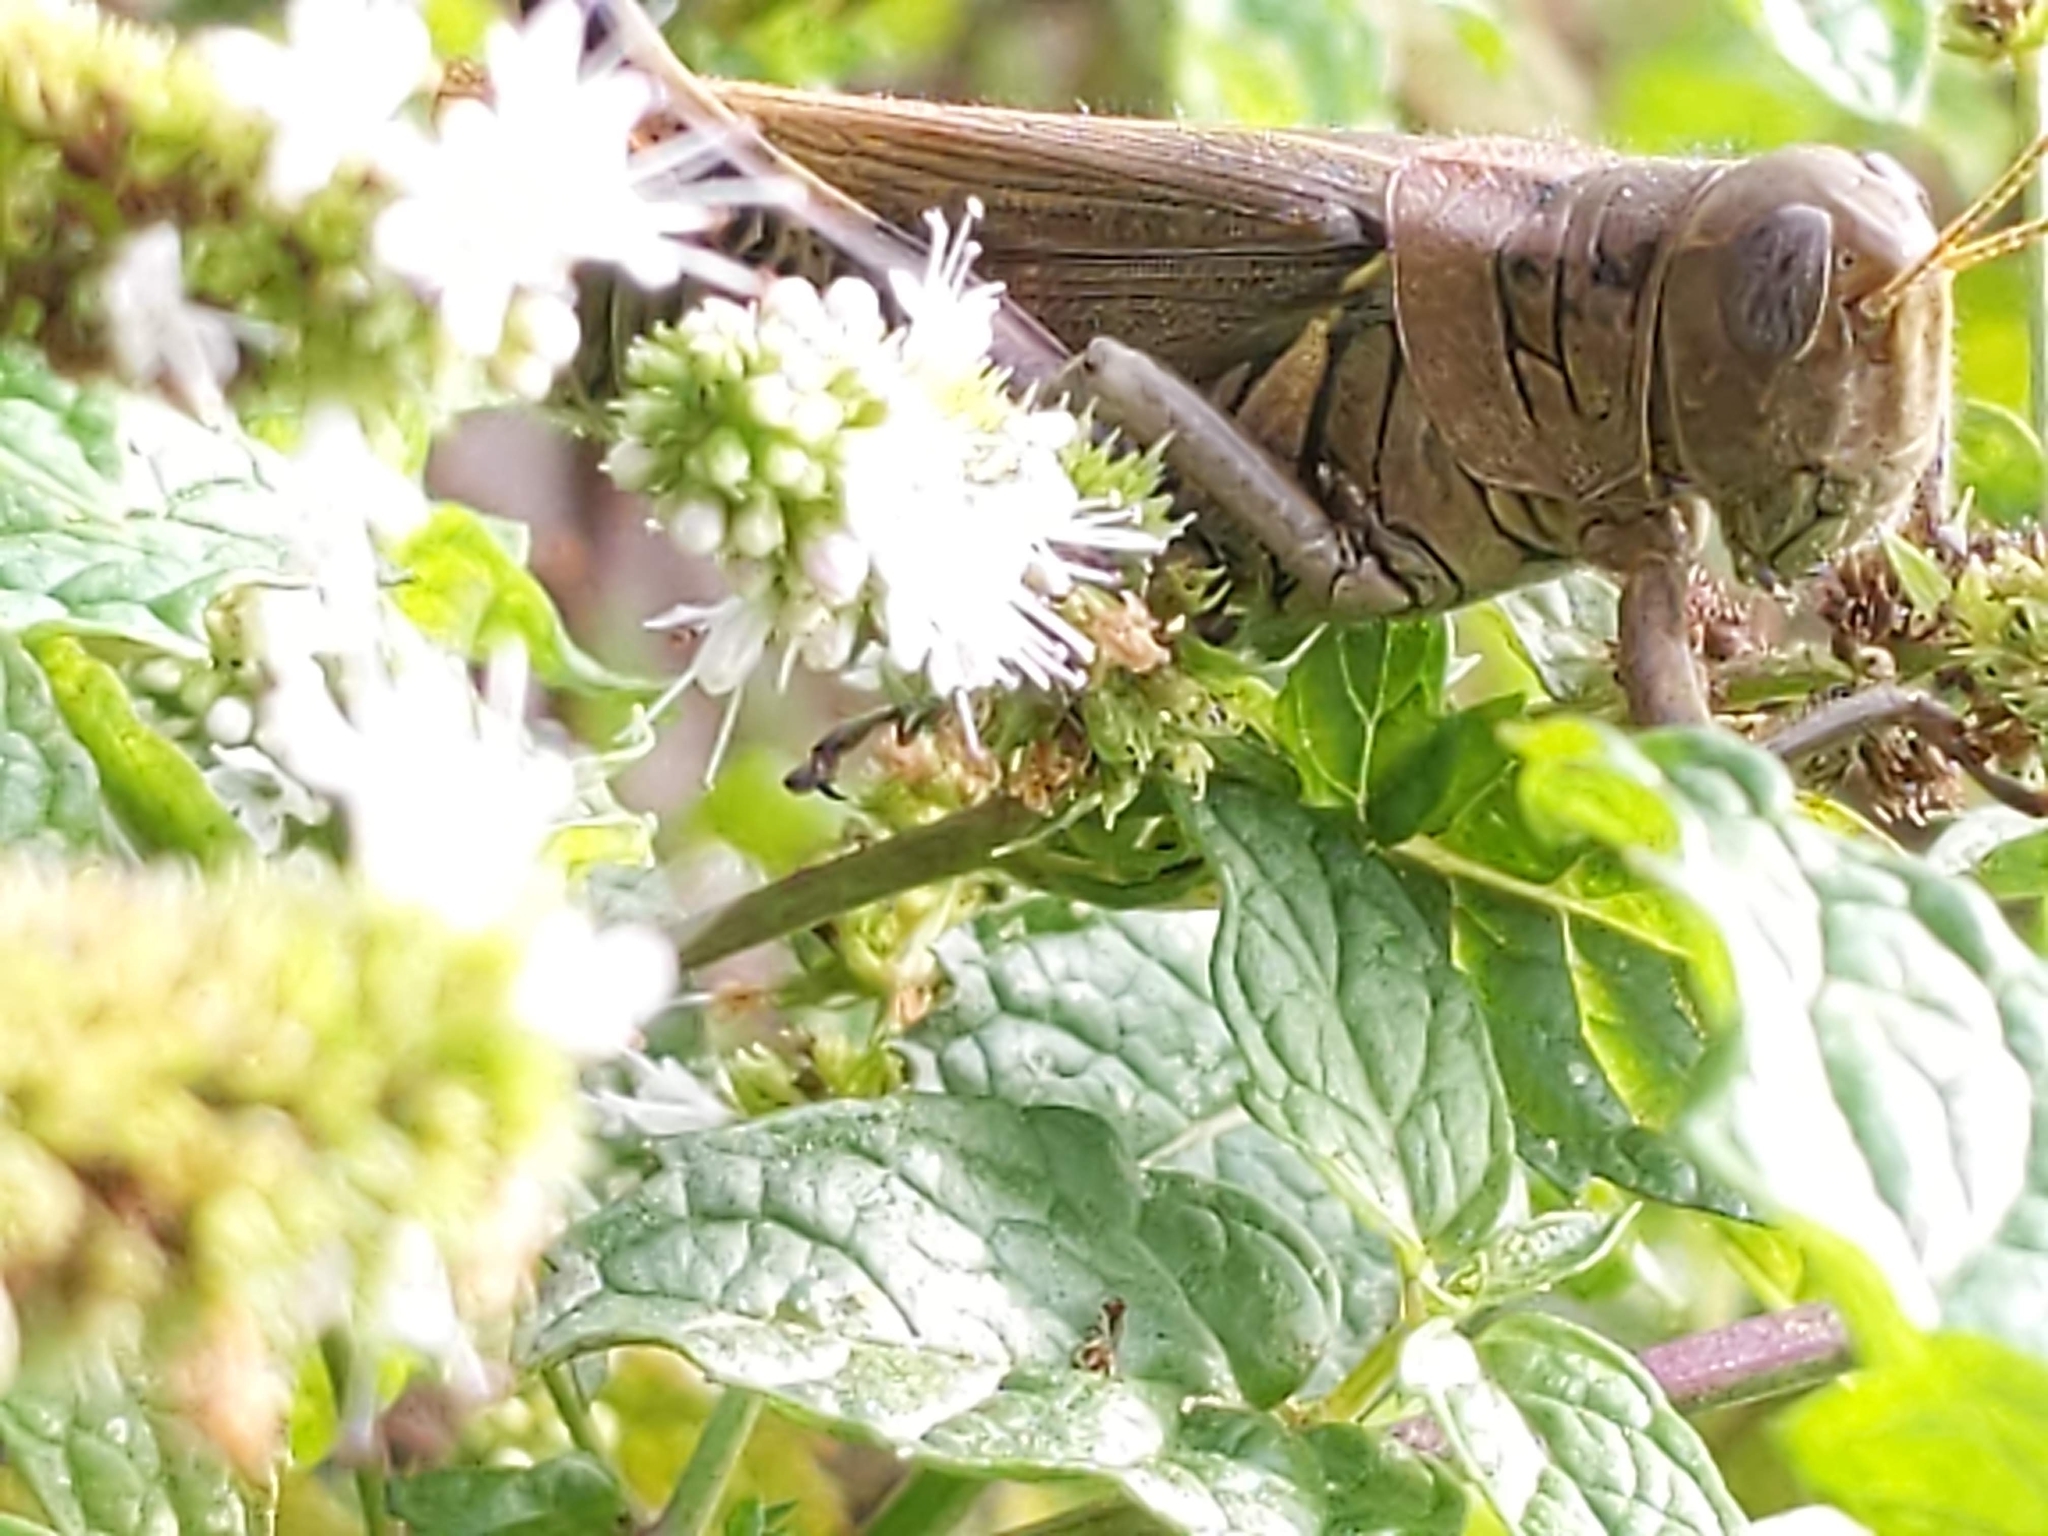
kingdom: Animalia
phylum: Arthropoda
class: Insecta
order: Orthoptera
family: Acrididae
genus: Melanoplus
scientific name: Melanoplus differentialis
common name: Differential grasshopper
